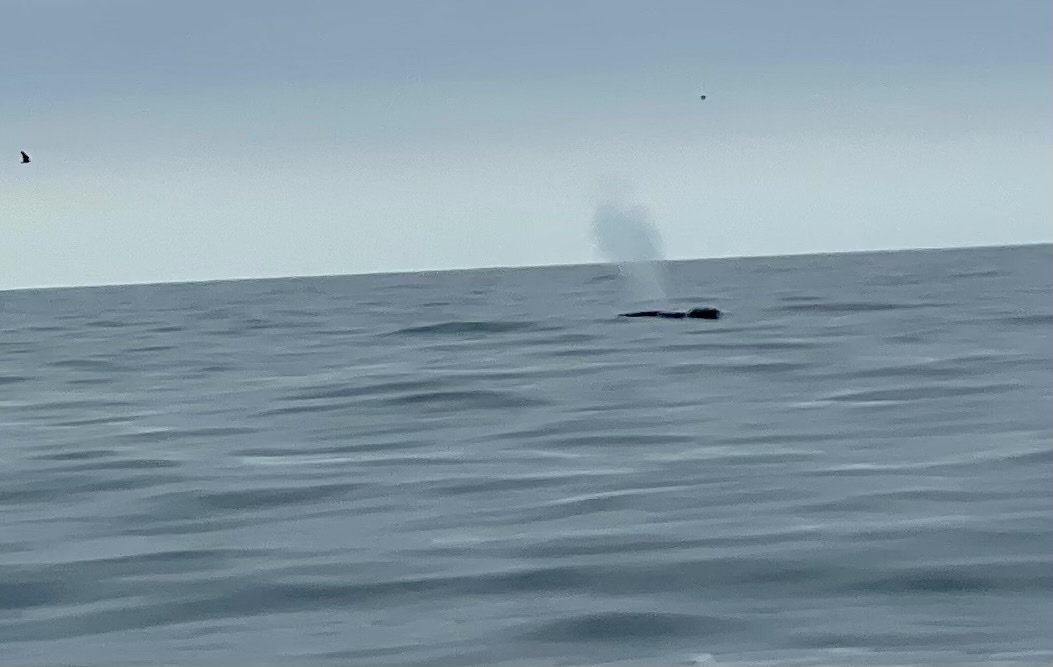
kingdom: Animalia
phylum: Chordata
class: Mammalia
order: Cetacea
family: Balaenopteridae
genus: Megaptera
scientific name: Megaptera novaeangliae
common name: Humpback whale
